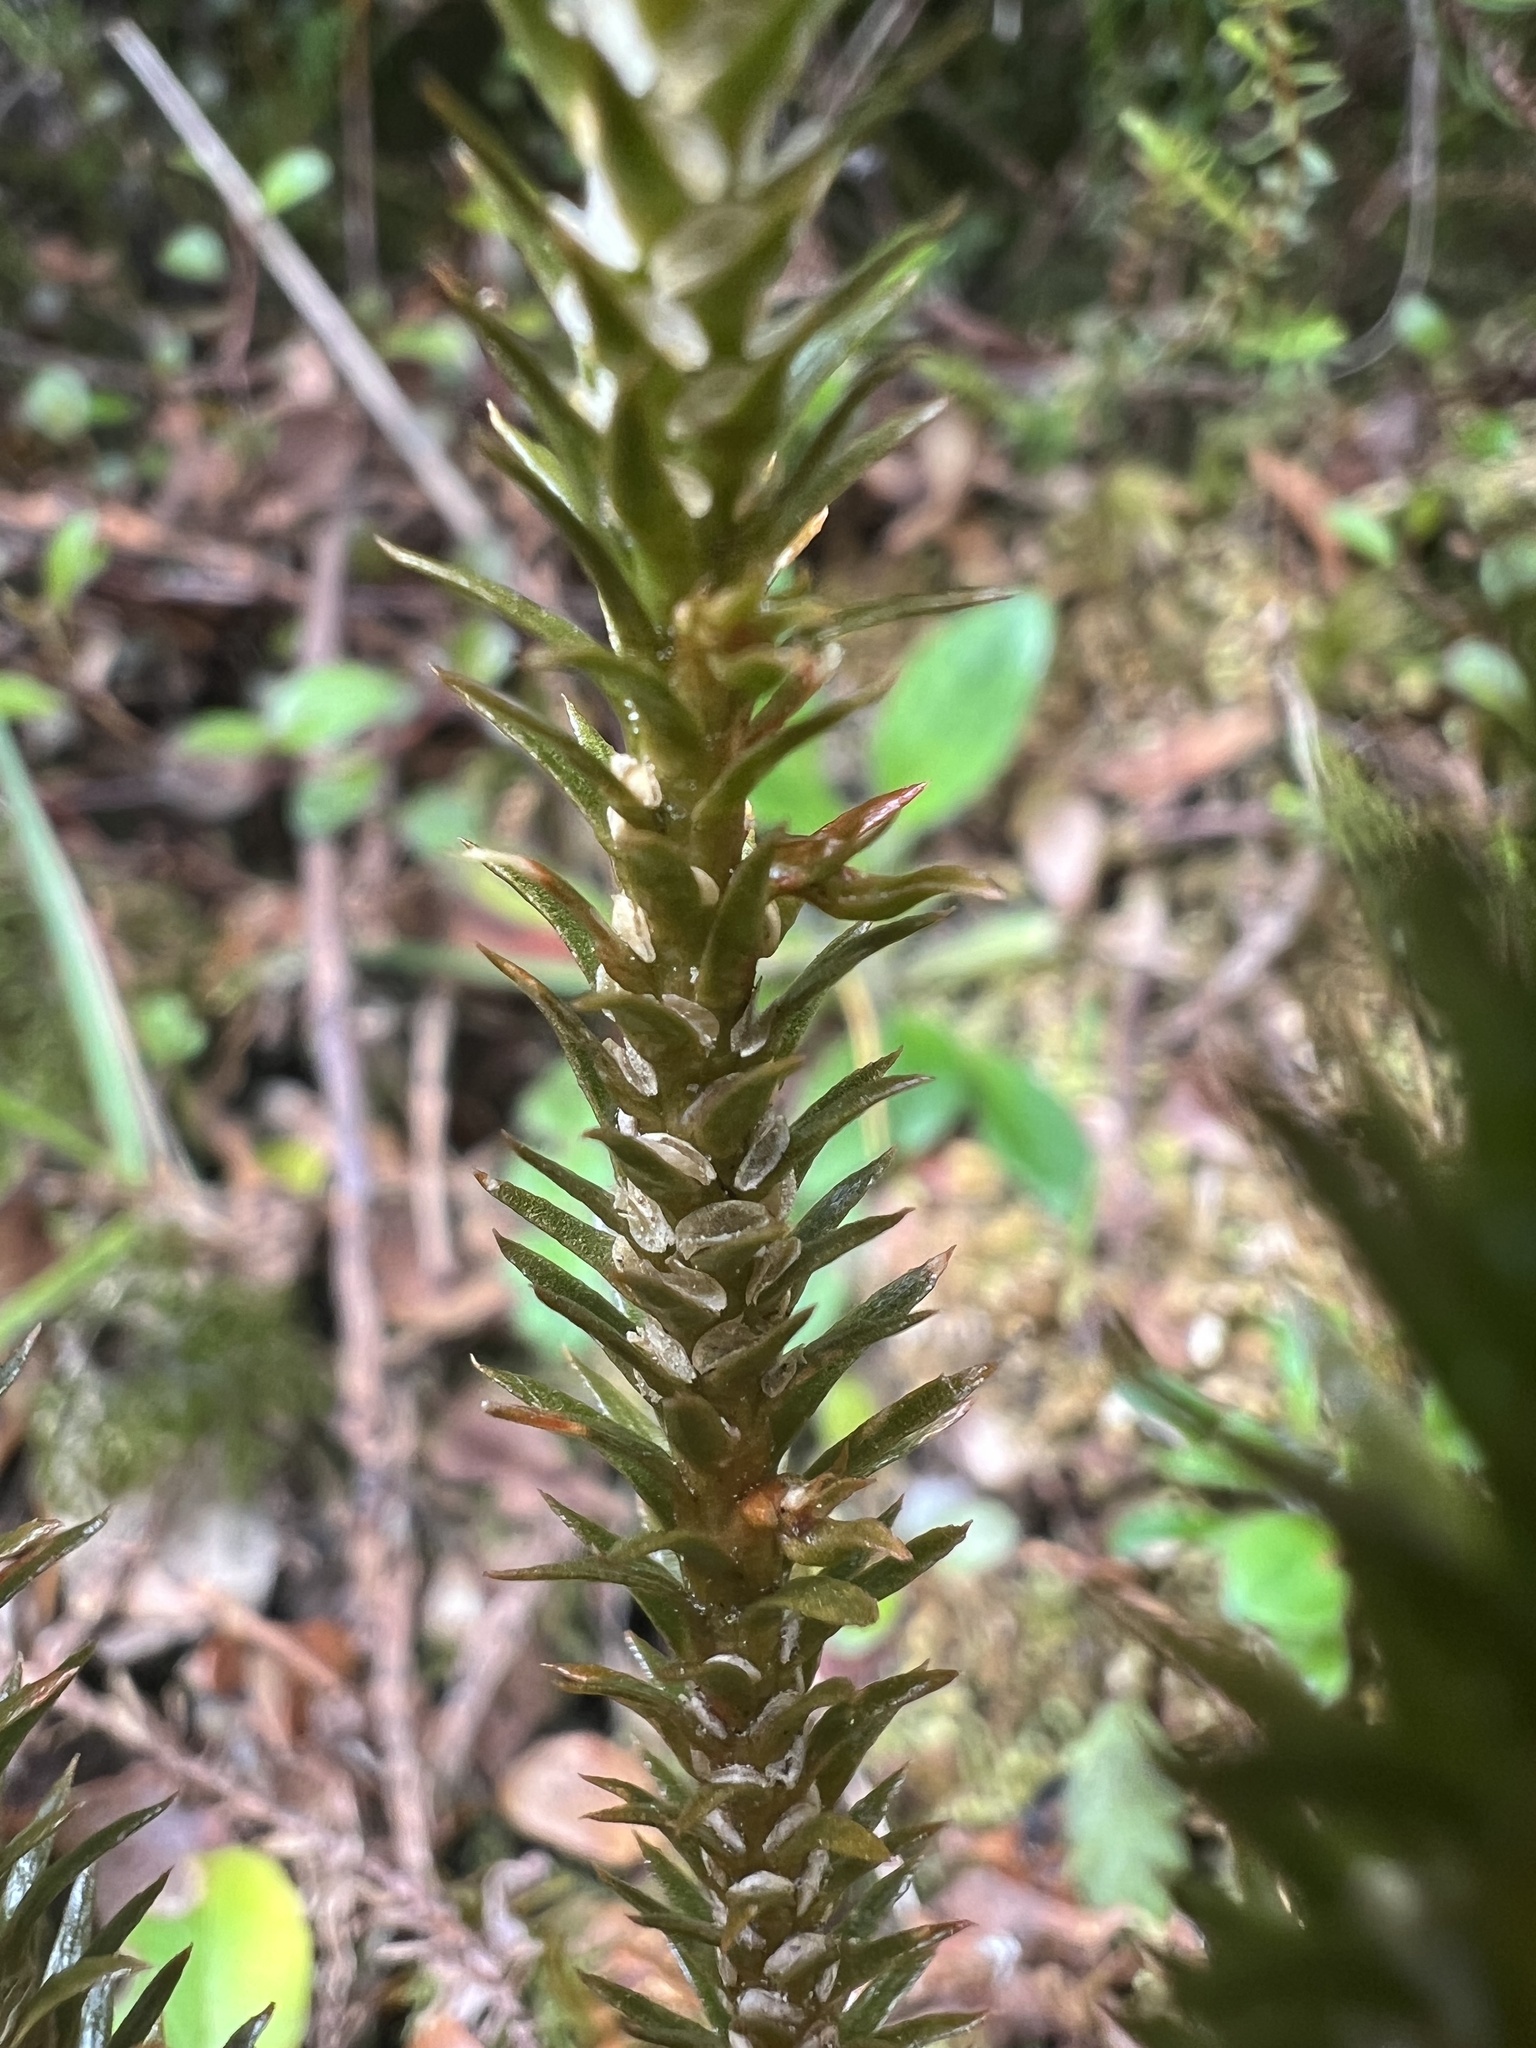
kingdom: Plantae
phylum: Tracheophyta
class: Lycopodiopsida
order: Lycopodiales
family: Lycopodiaceae
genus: Huperzia
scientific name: Huperzia australiana
